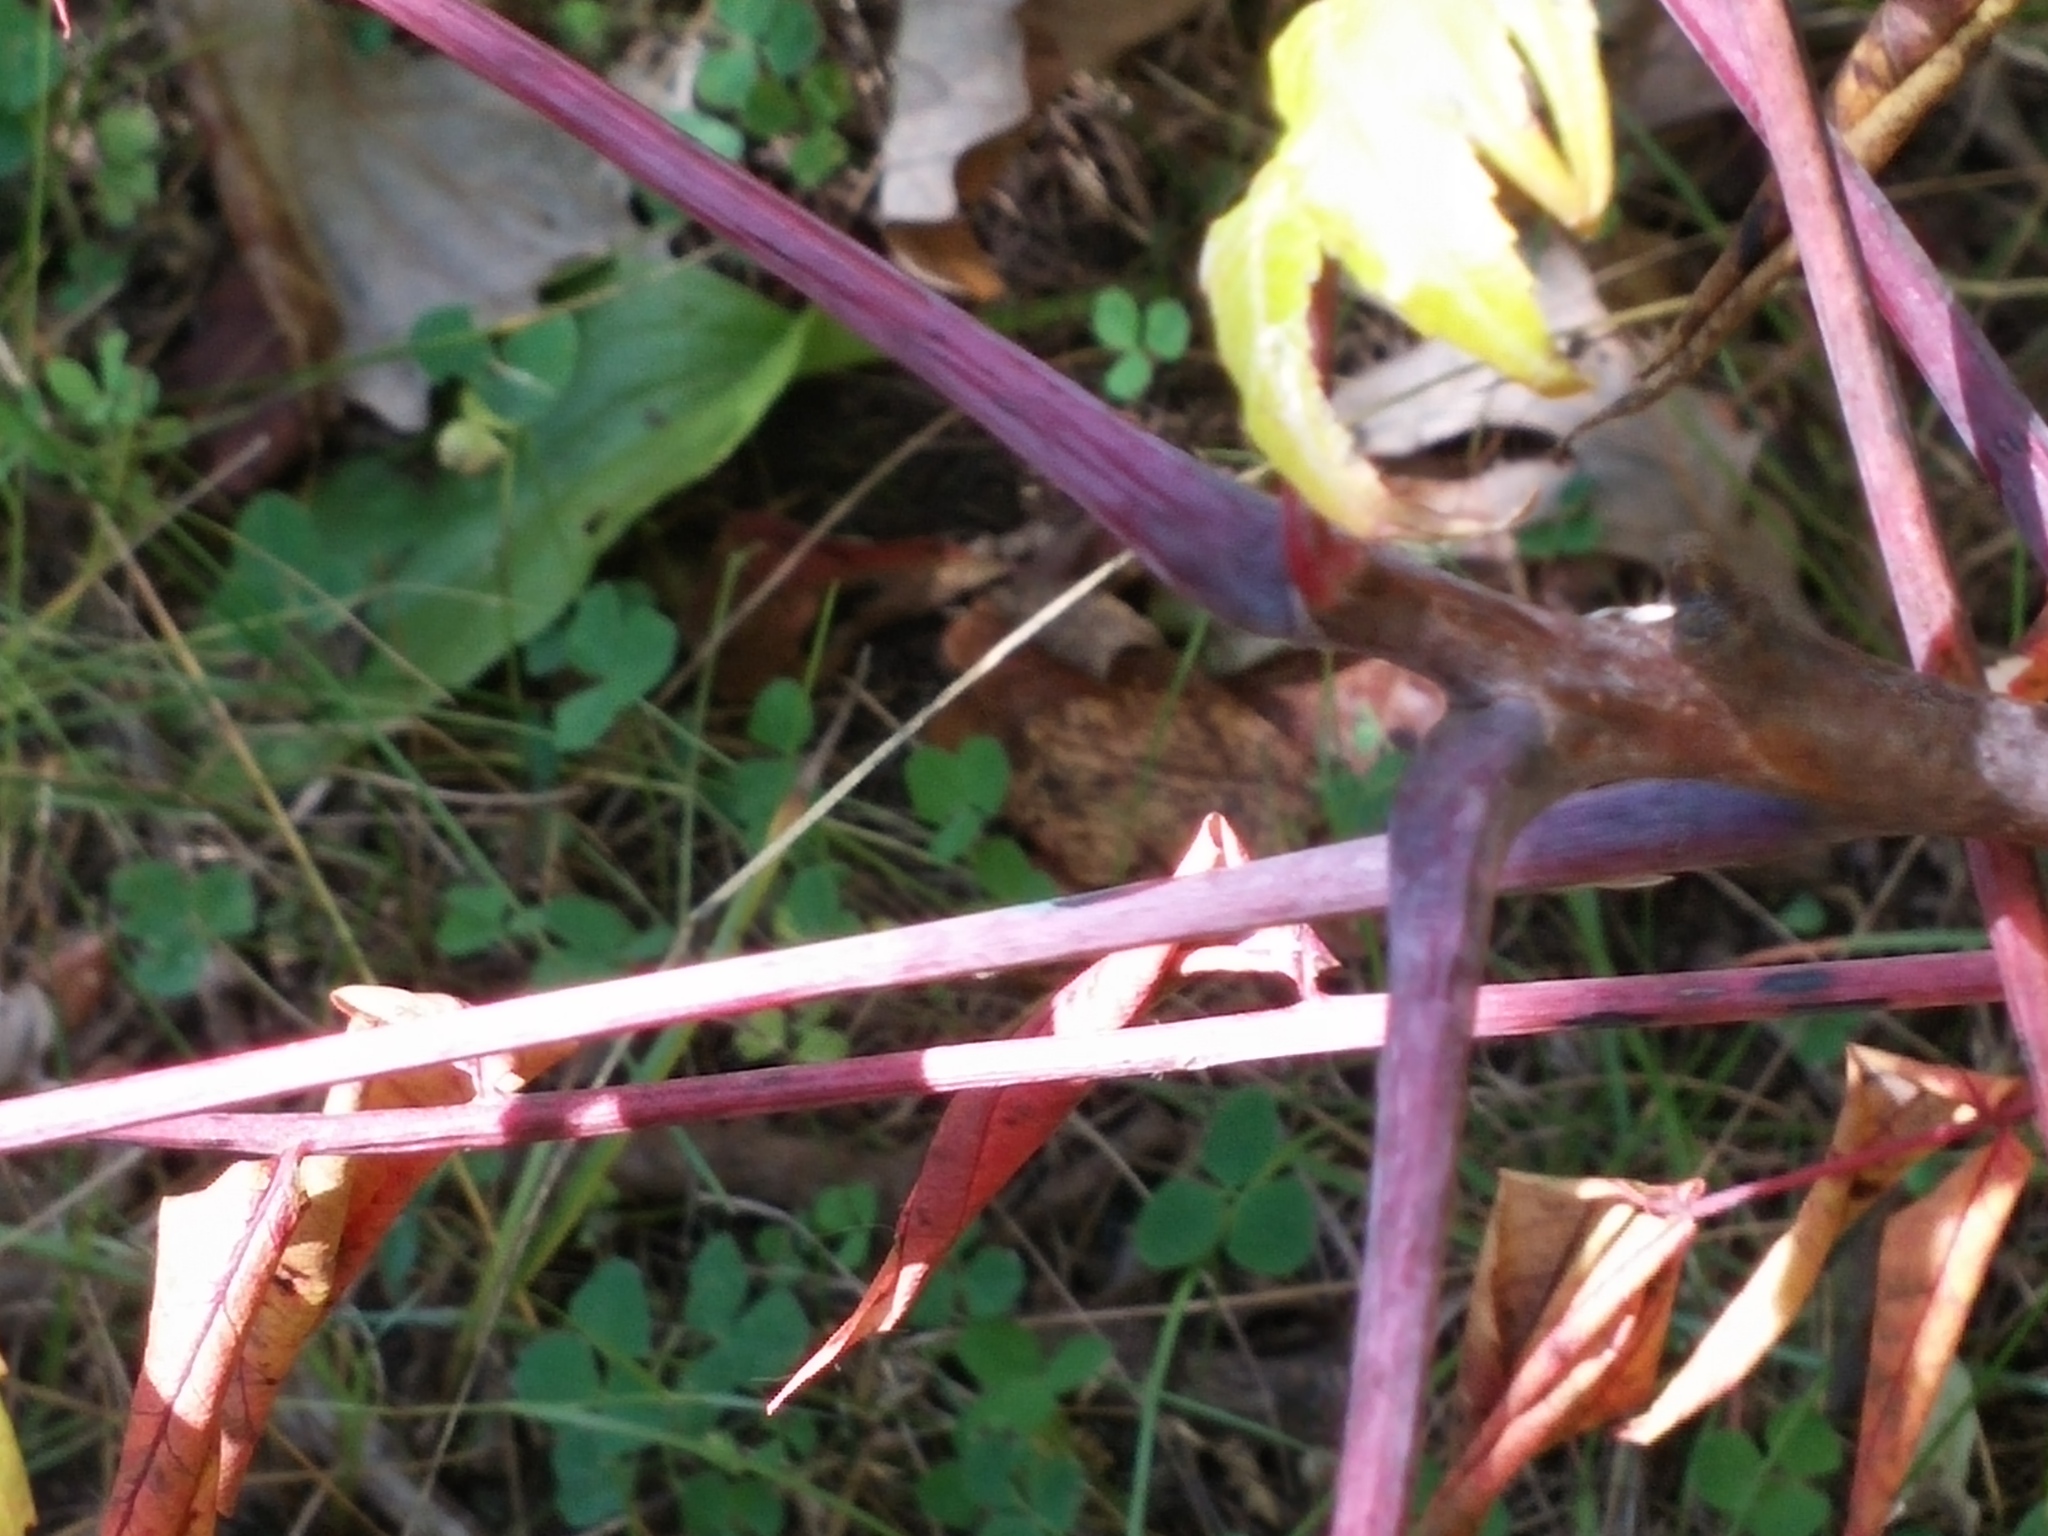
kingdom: Plantae
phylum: Tracheophyta
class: Magnoliopsida
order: Sapindales
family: Anacardiaceae
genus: Rhus
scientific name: Rhus glabra
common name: Scarlet sumac
